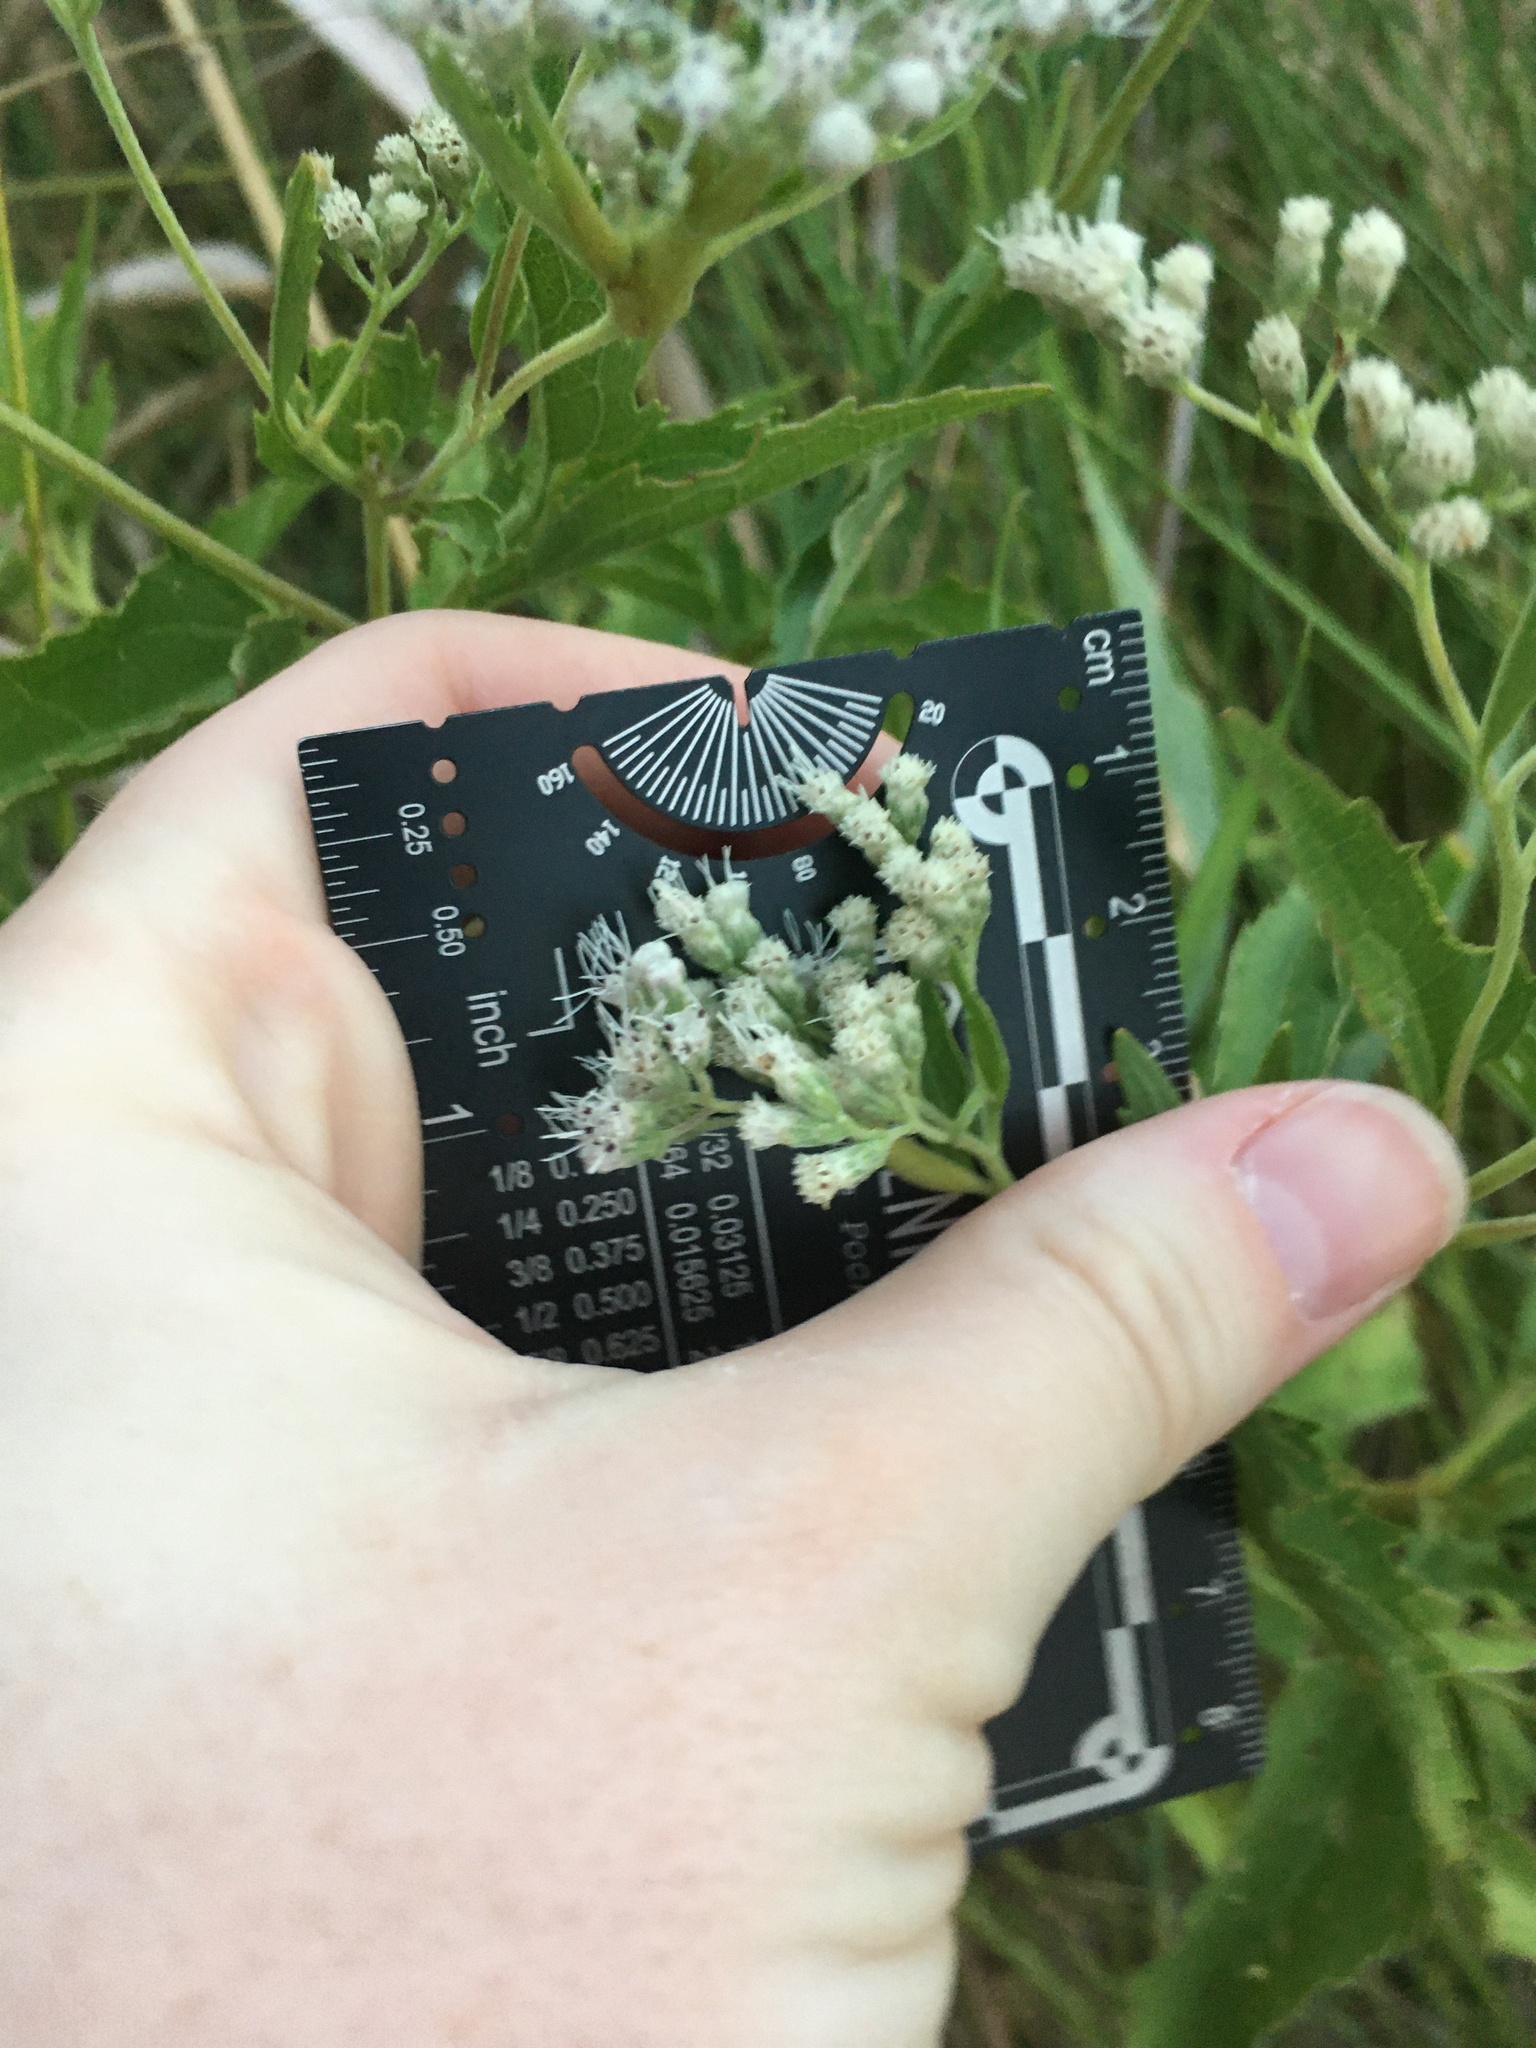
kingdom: Plantae
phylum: Tracheophyta
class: Magnoliopsida
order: Asterales
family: Asteraceae
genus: Eupatorium
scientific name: Eupatorium serotinum
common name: Late boneset
